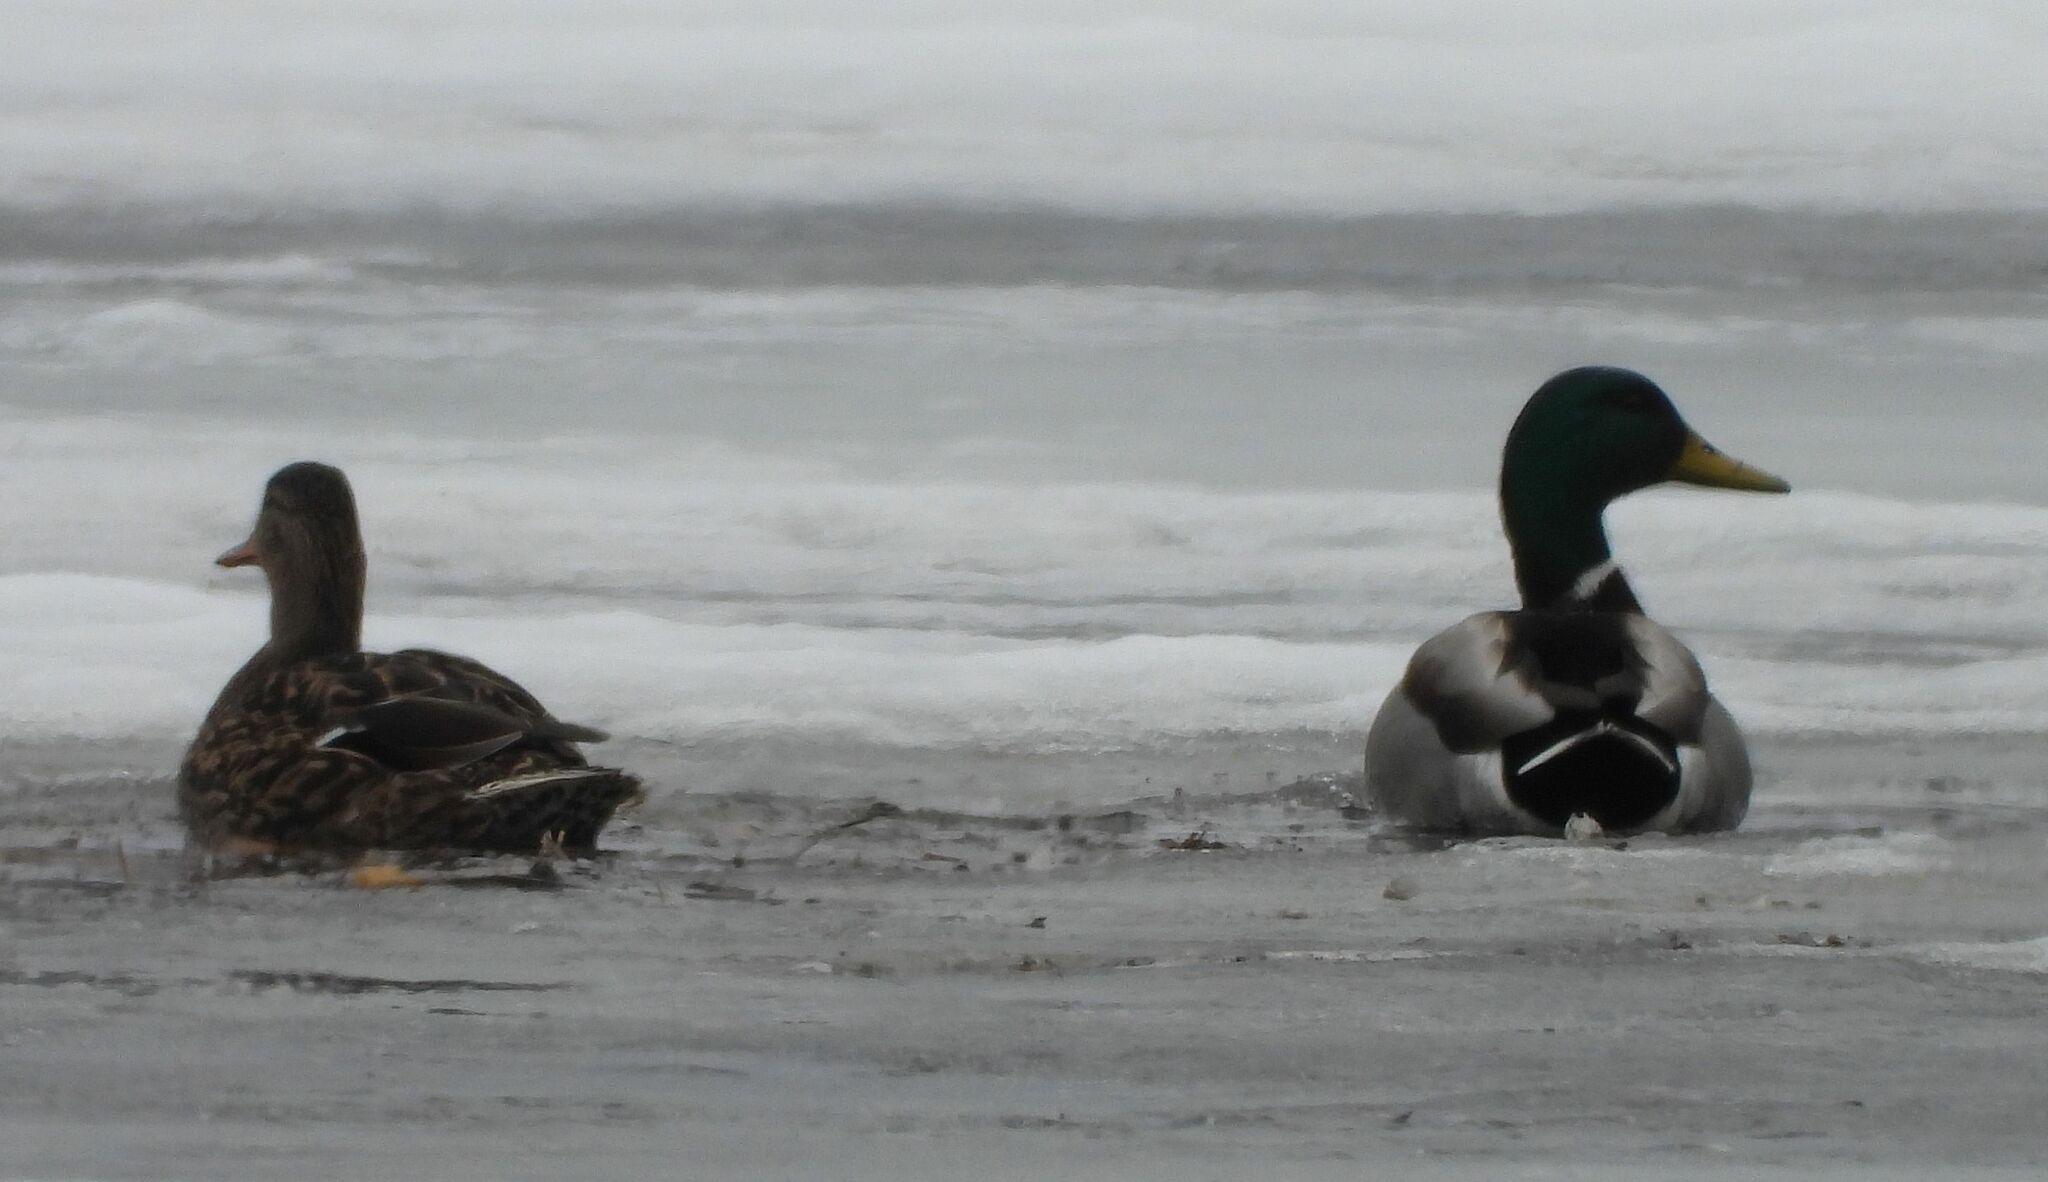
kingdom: Animalia
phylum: Chordata
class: Aves
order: Anseriformes
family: Anatidae
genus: Anas
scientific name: Anas platyrhynchos
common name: Mallard
